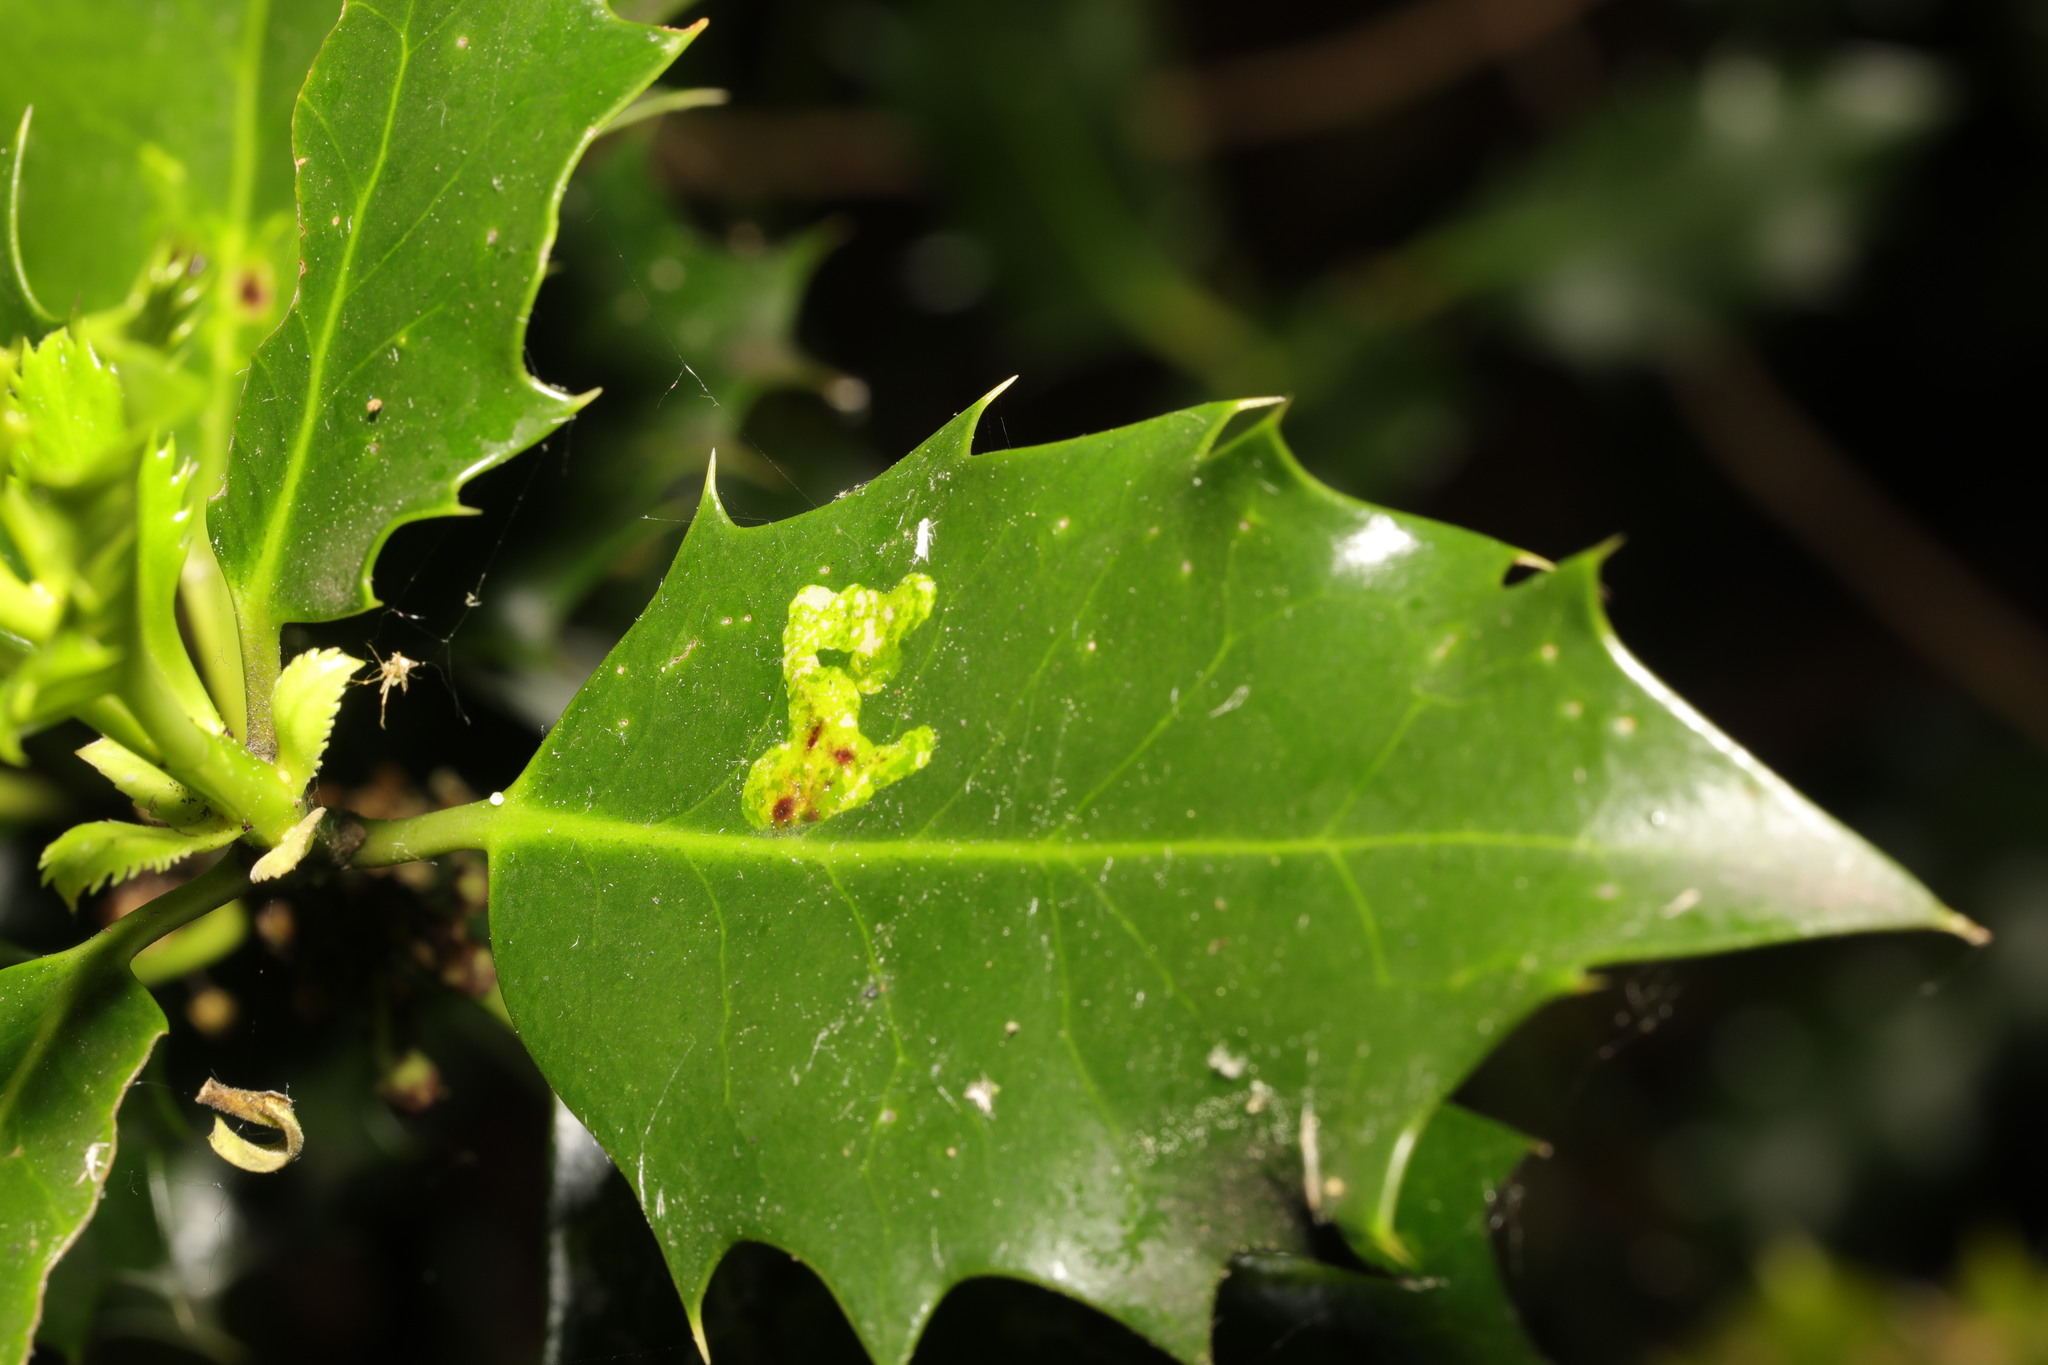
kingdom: Animalia
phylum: Arthropoda
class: Insecta
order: Diptera
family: Agromyzidae
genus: Phytomyza
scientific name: Phytomyza ilicis
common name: Holly leafminer
